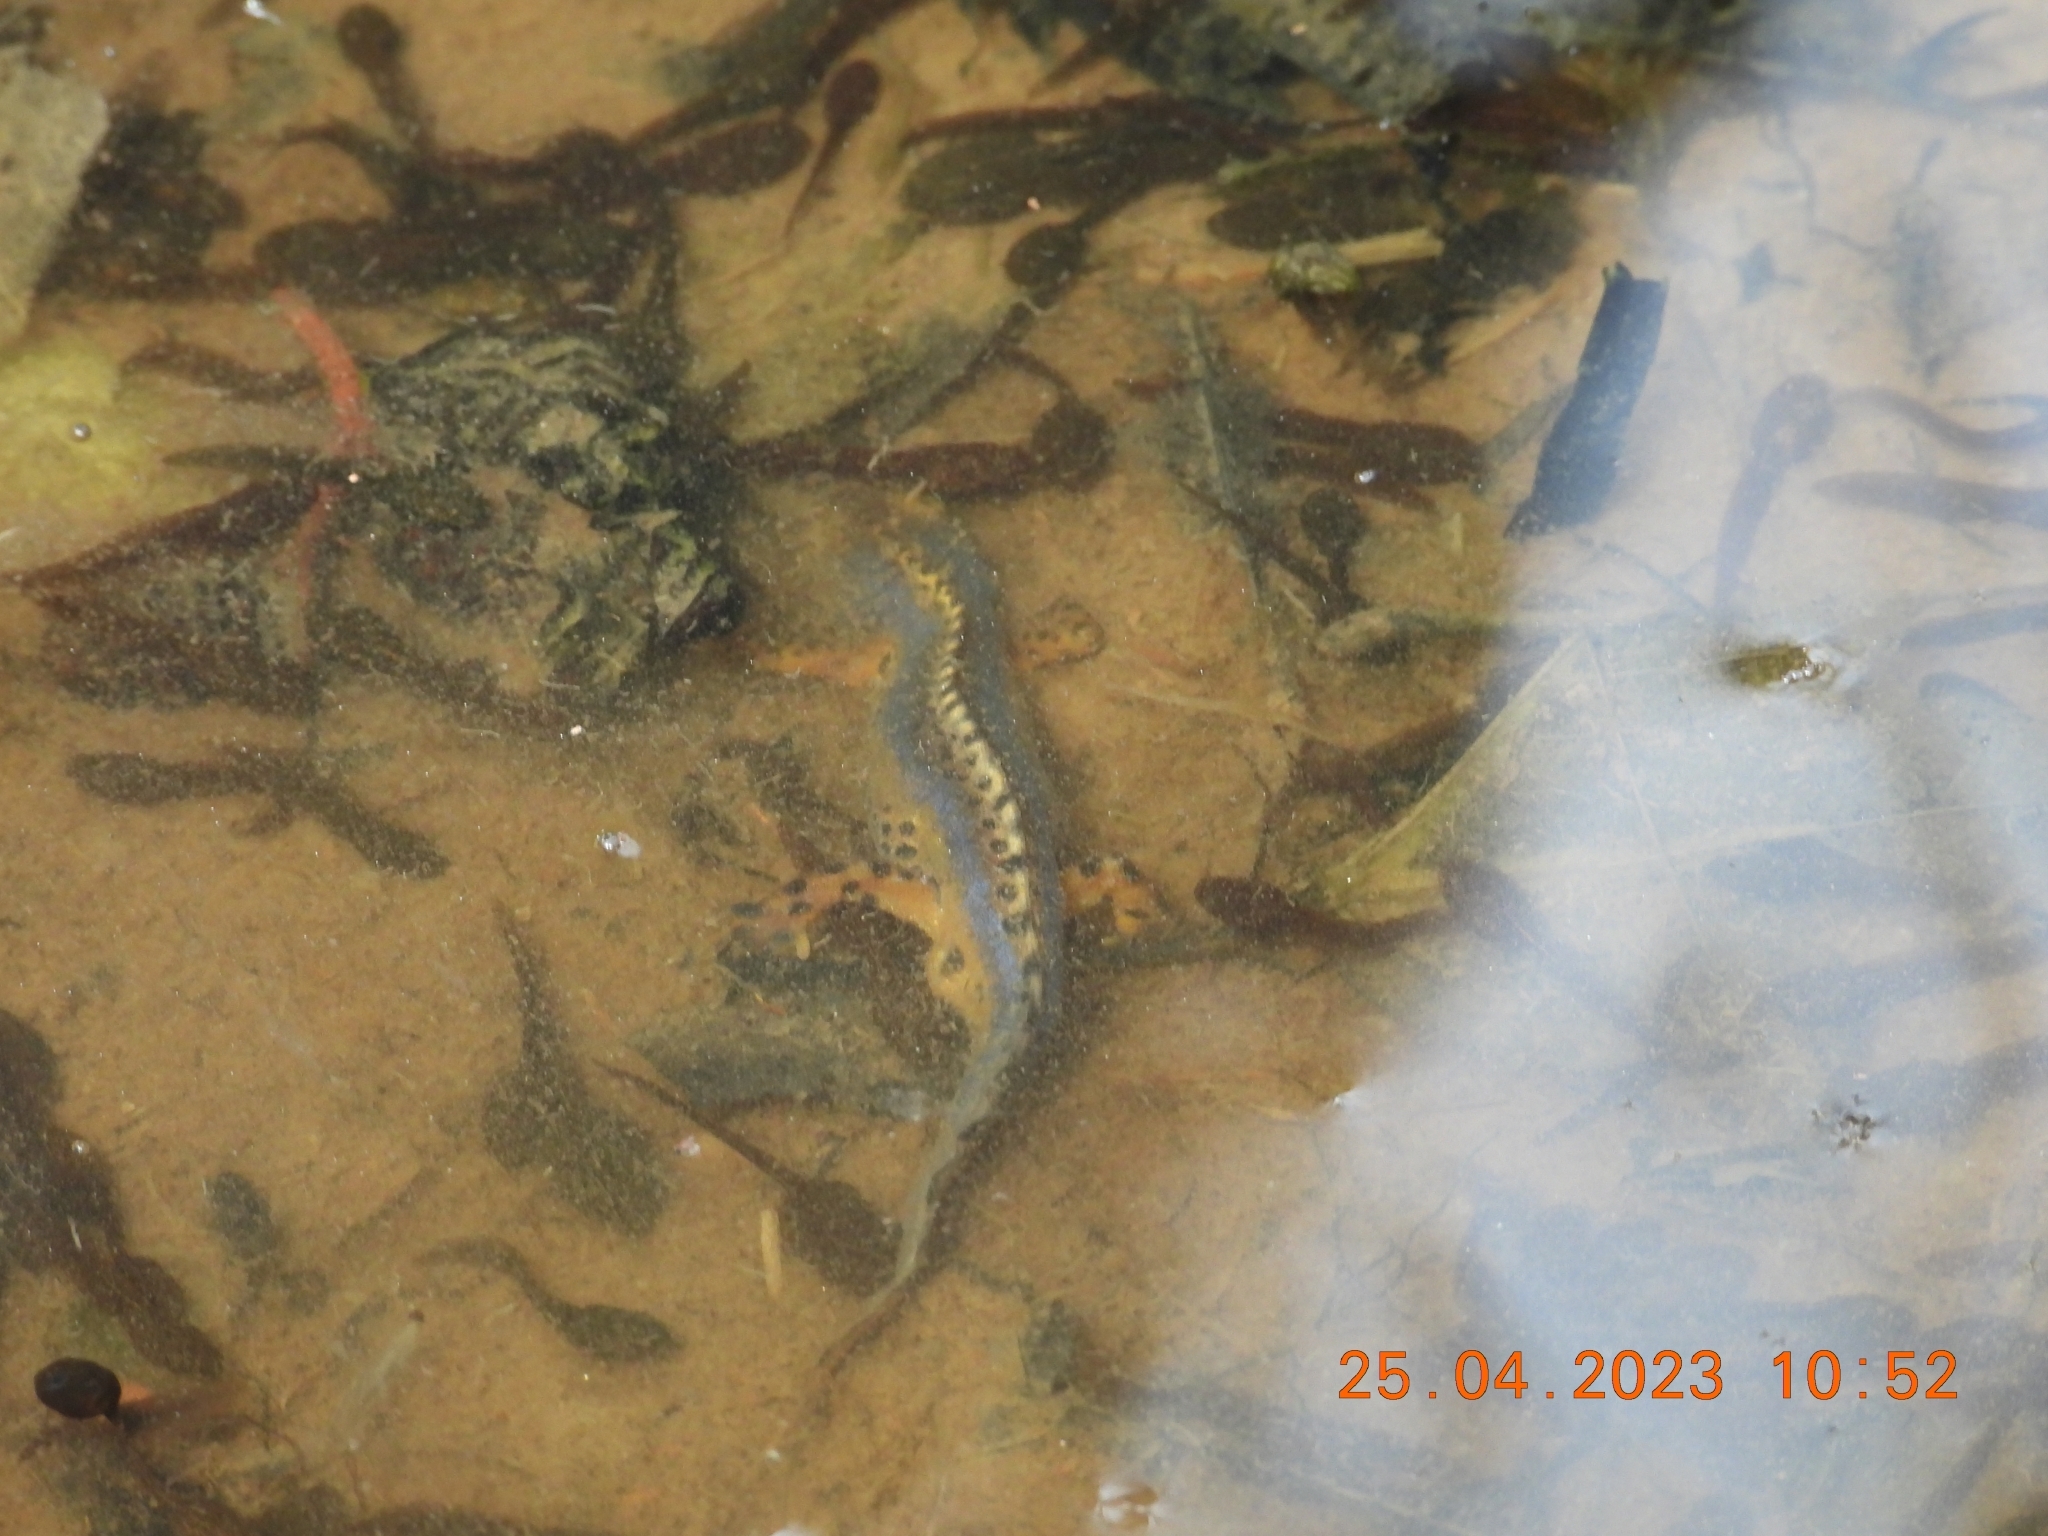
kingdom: Animalia
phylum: Chordata
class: Amphibia
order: Caudata
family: Salamandridae
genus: Ichthyosaura
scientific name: Ichthyosaura alpestris
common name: Alpine newt
